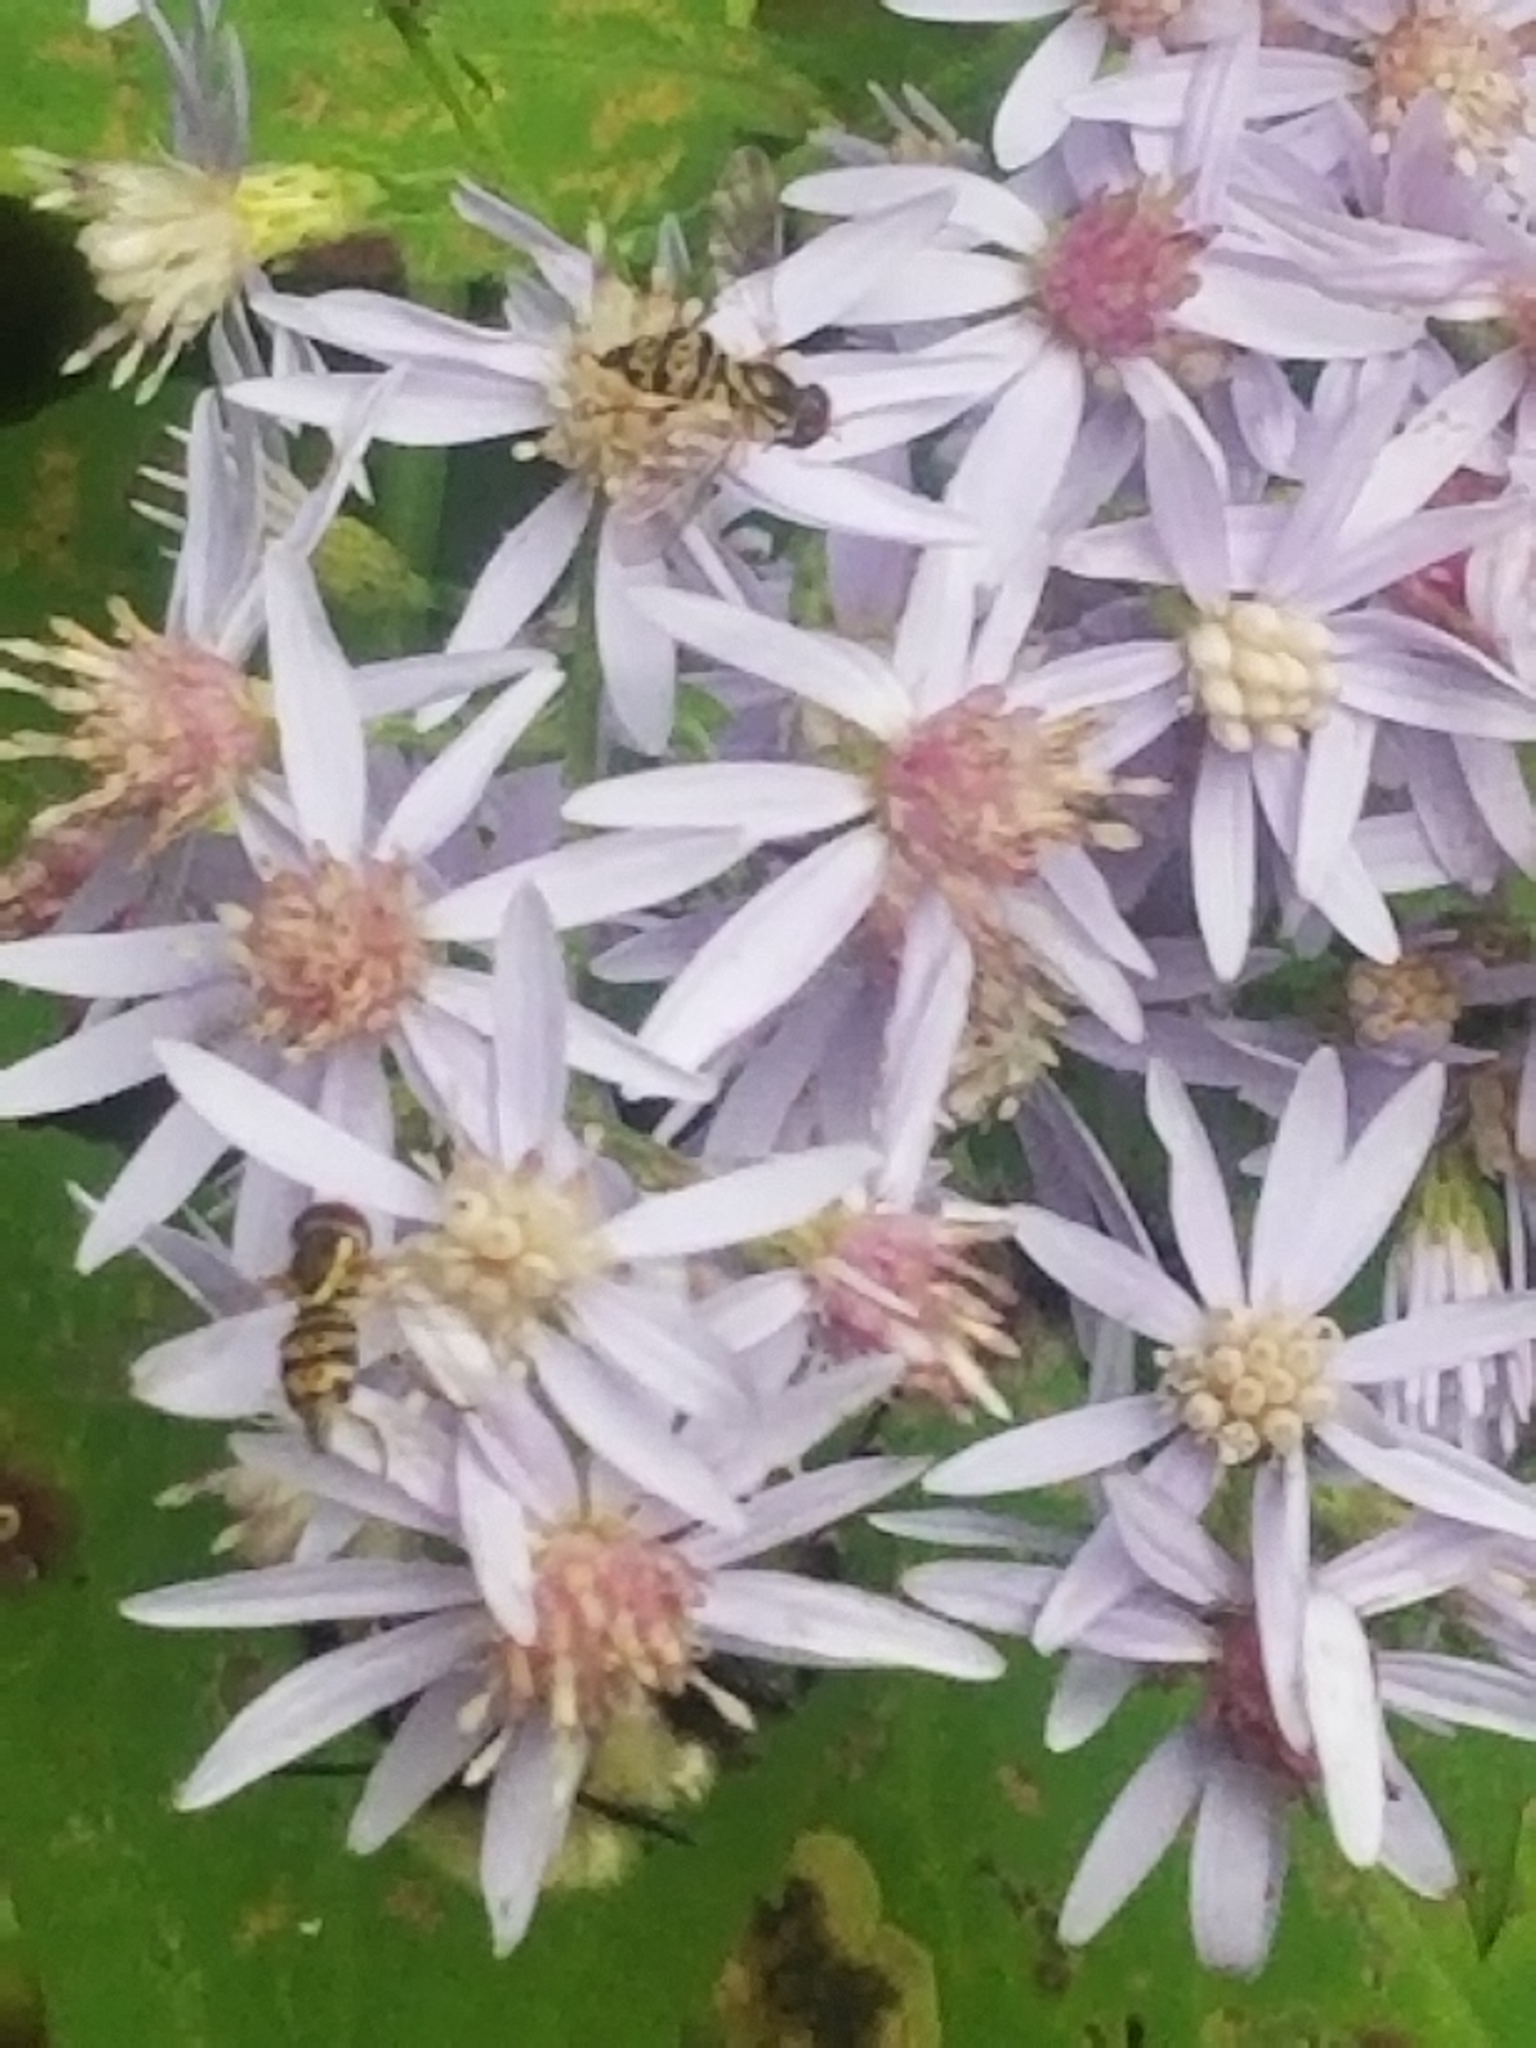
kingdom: Animalia
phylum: Arthropoda
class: Insecta
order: Diptera
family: Syrphidae
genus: Toxomerus
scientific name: Toxomerus geminatus
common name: Eastern calligrapher
